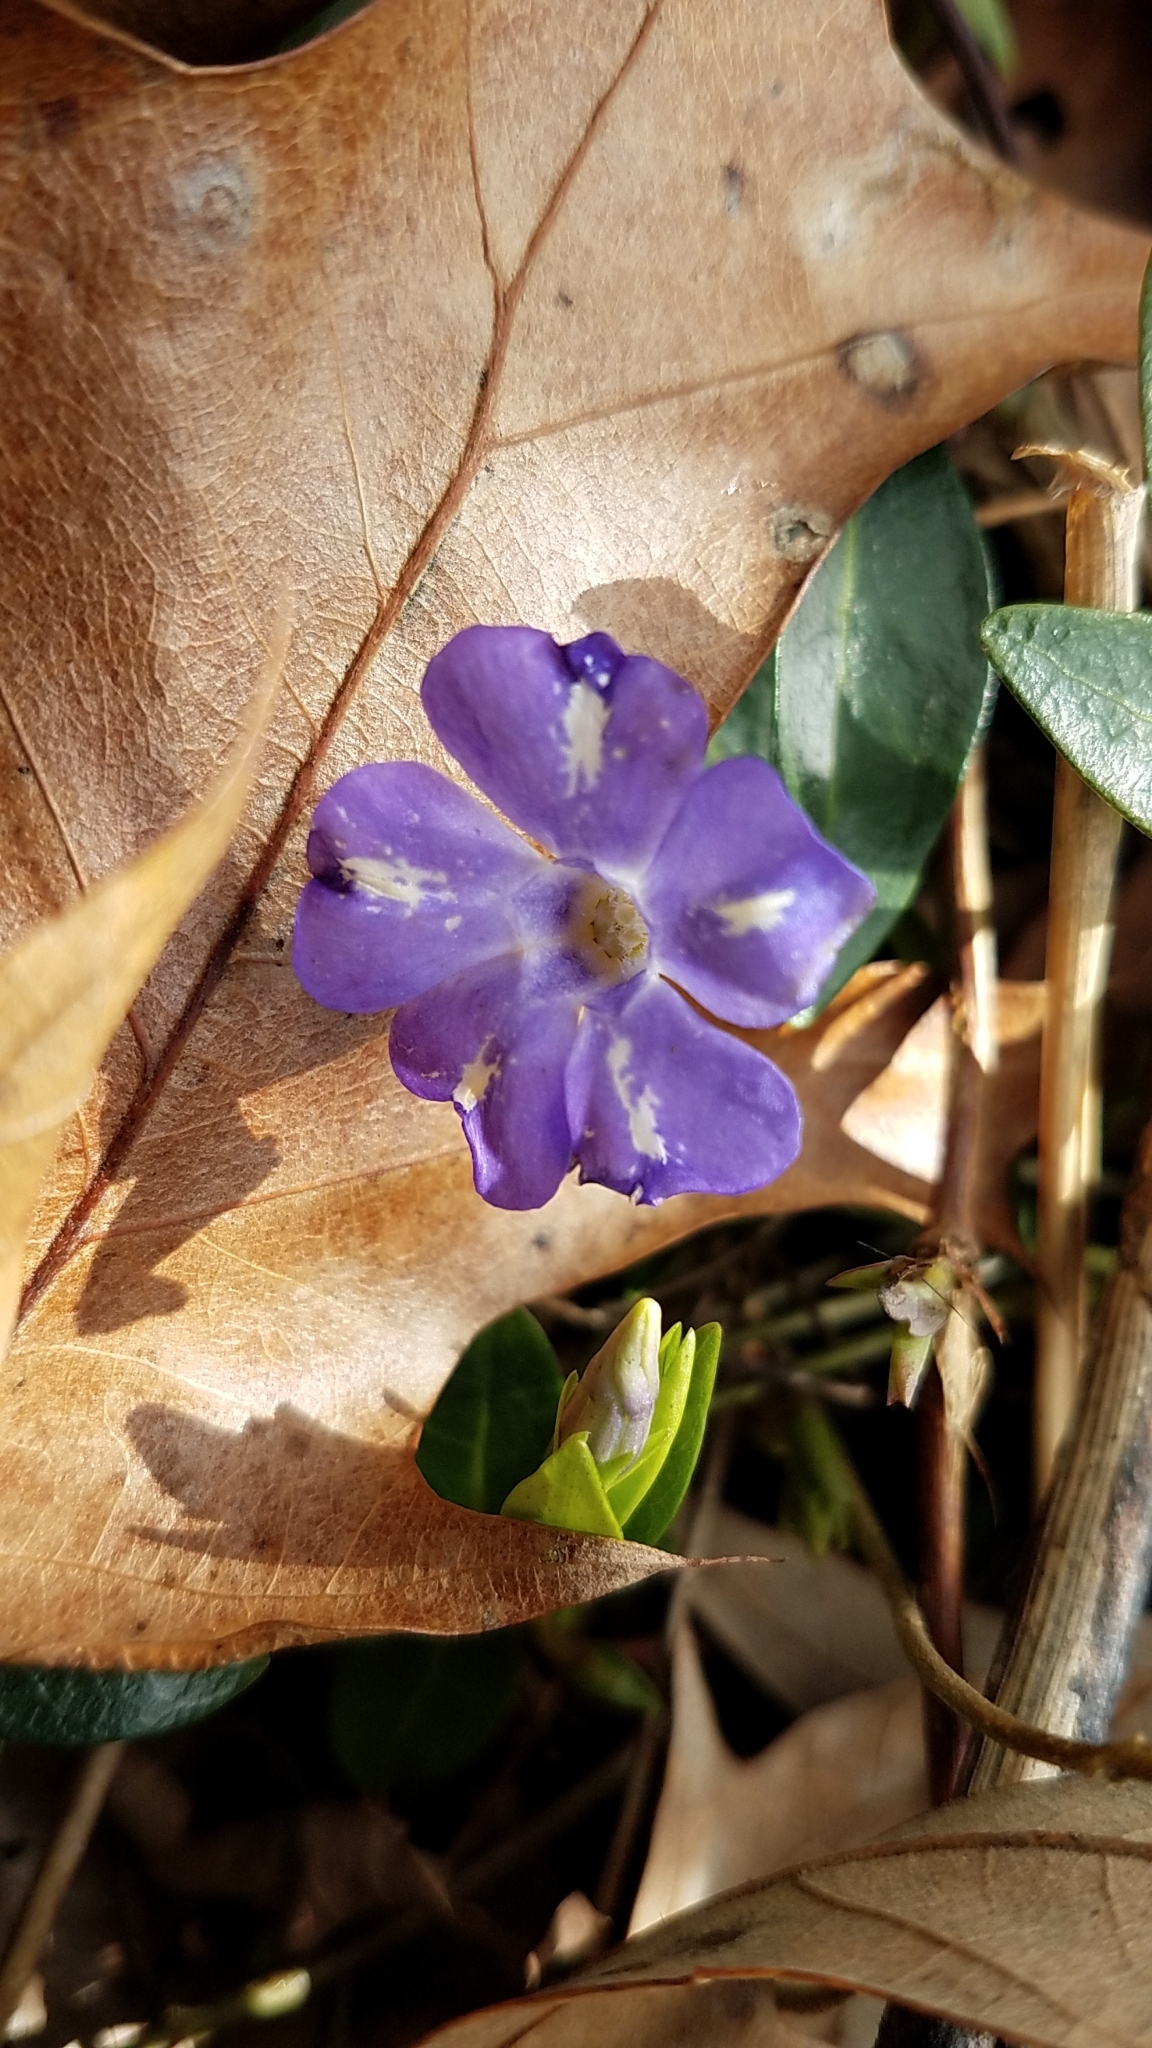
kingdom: Plantae
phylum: Tracheophyta
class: Magnoliopsida
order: Gentianales
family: Apocynaceae
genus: Vinca
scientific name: Vinca minor
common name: Lesser periwinkle
